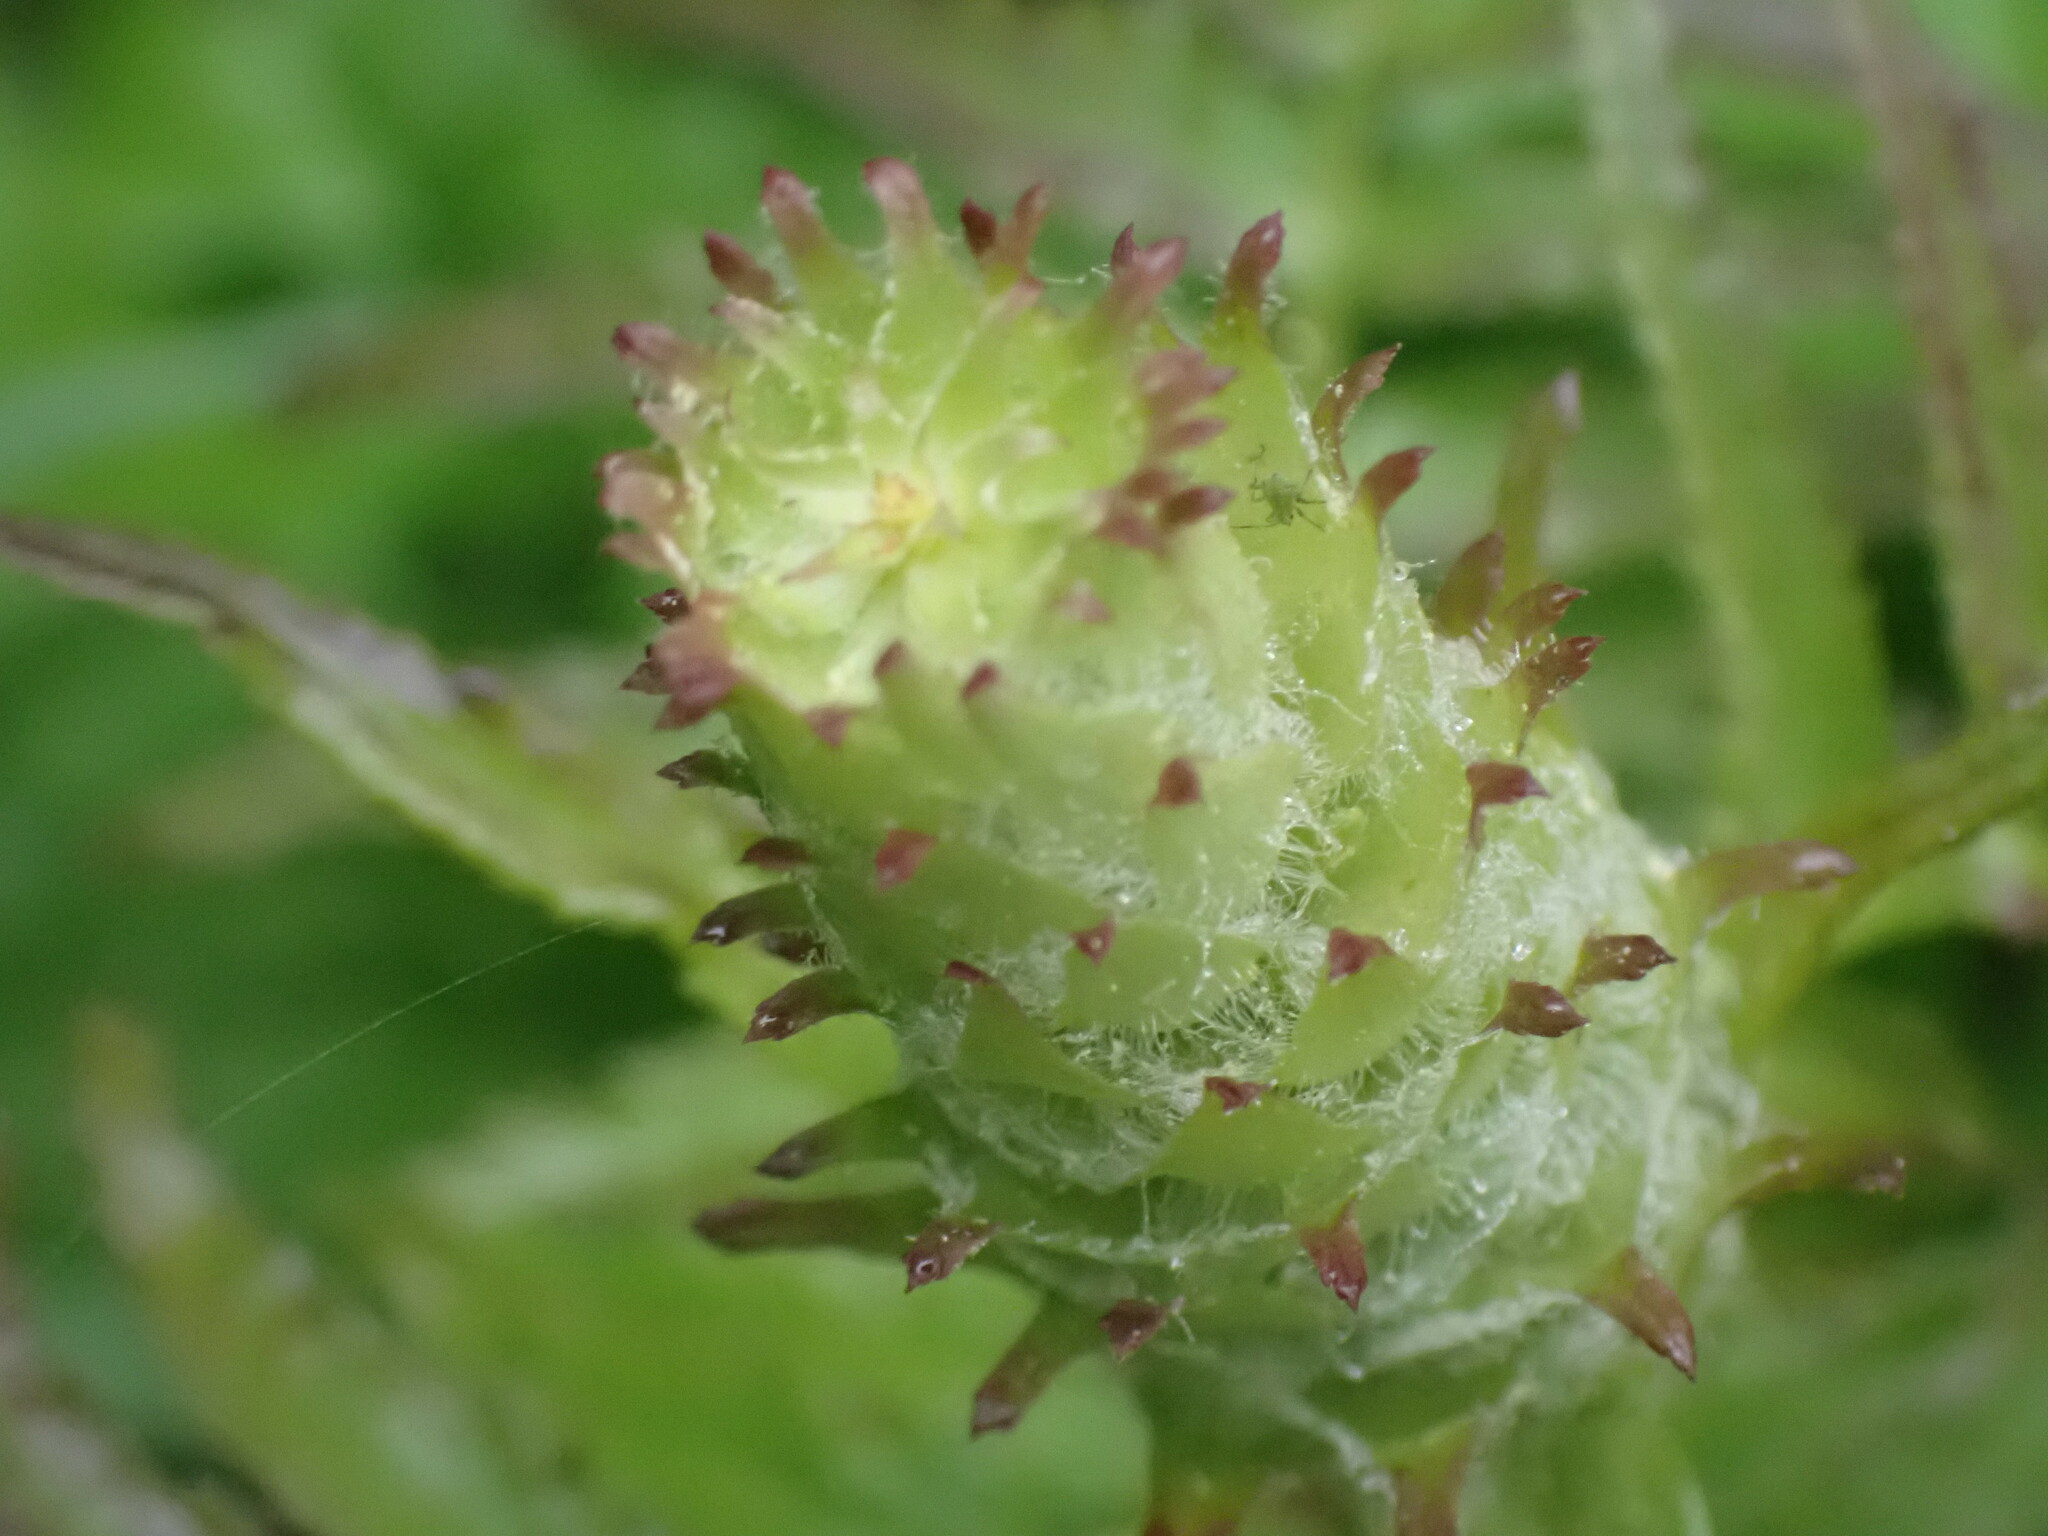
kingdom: Plantae
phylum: Tracheophyta
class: Magnoliopsida
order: Lamiales
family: Orobanchaceae
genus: Pedicularis
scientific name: Pedicularis bracteosa
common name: Bracted lousewort
